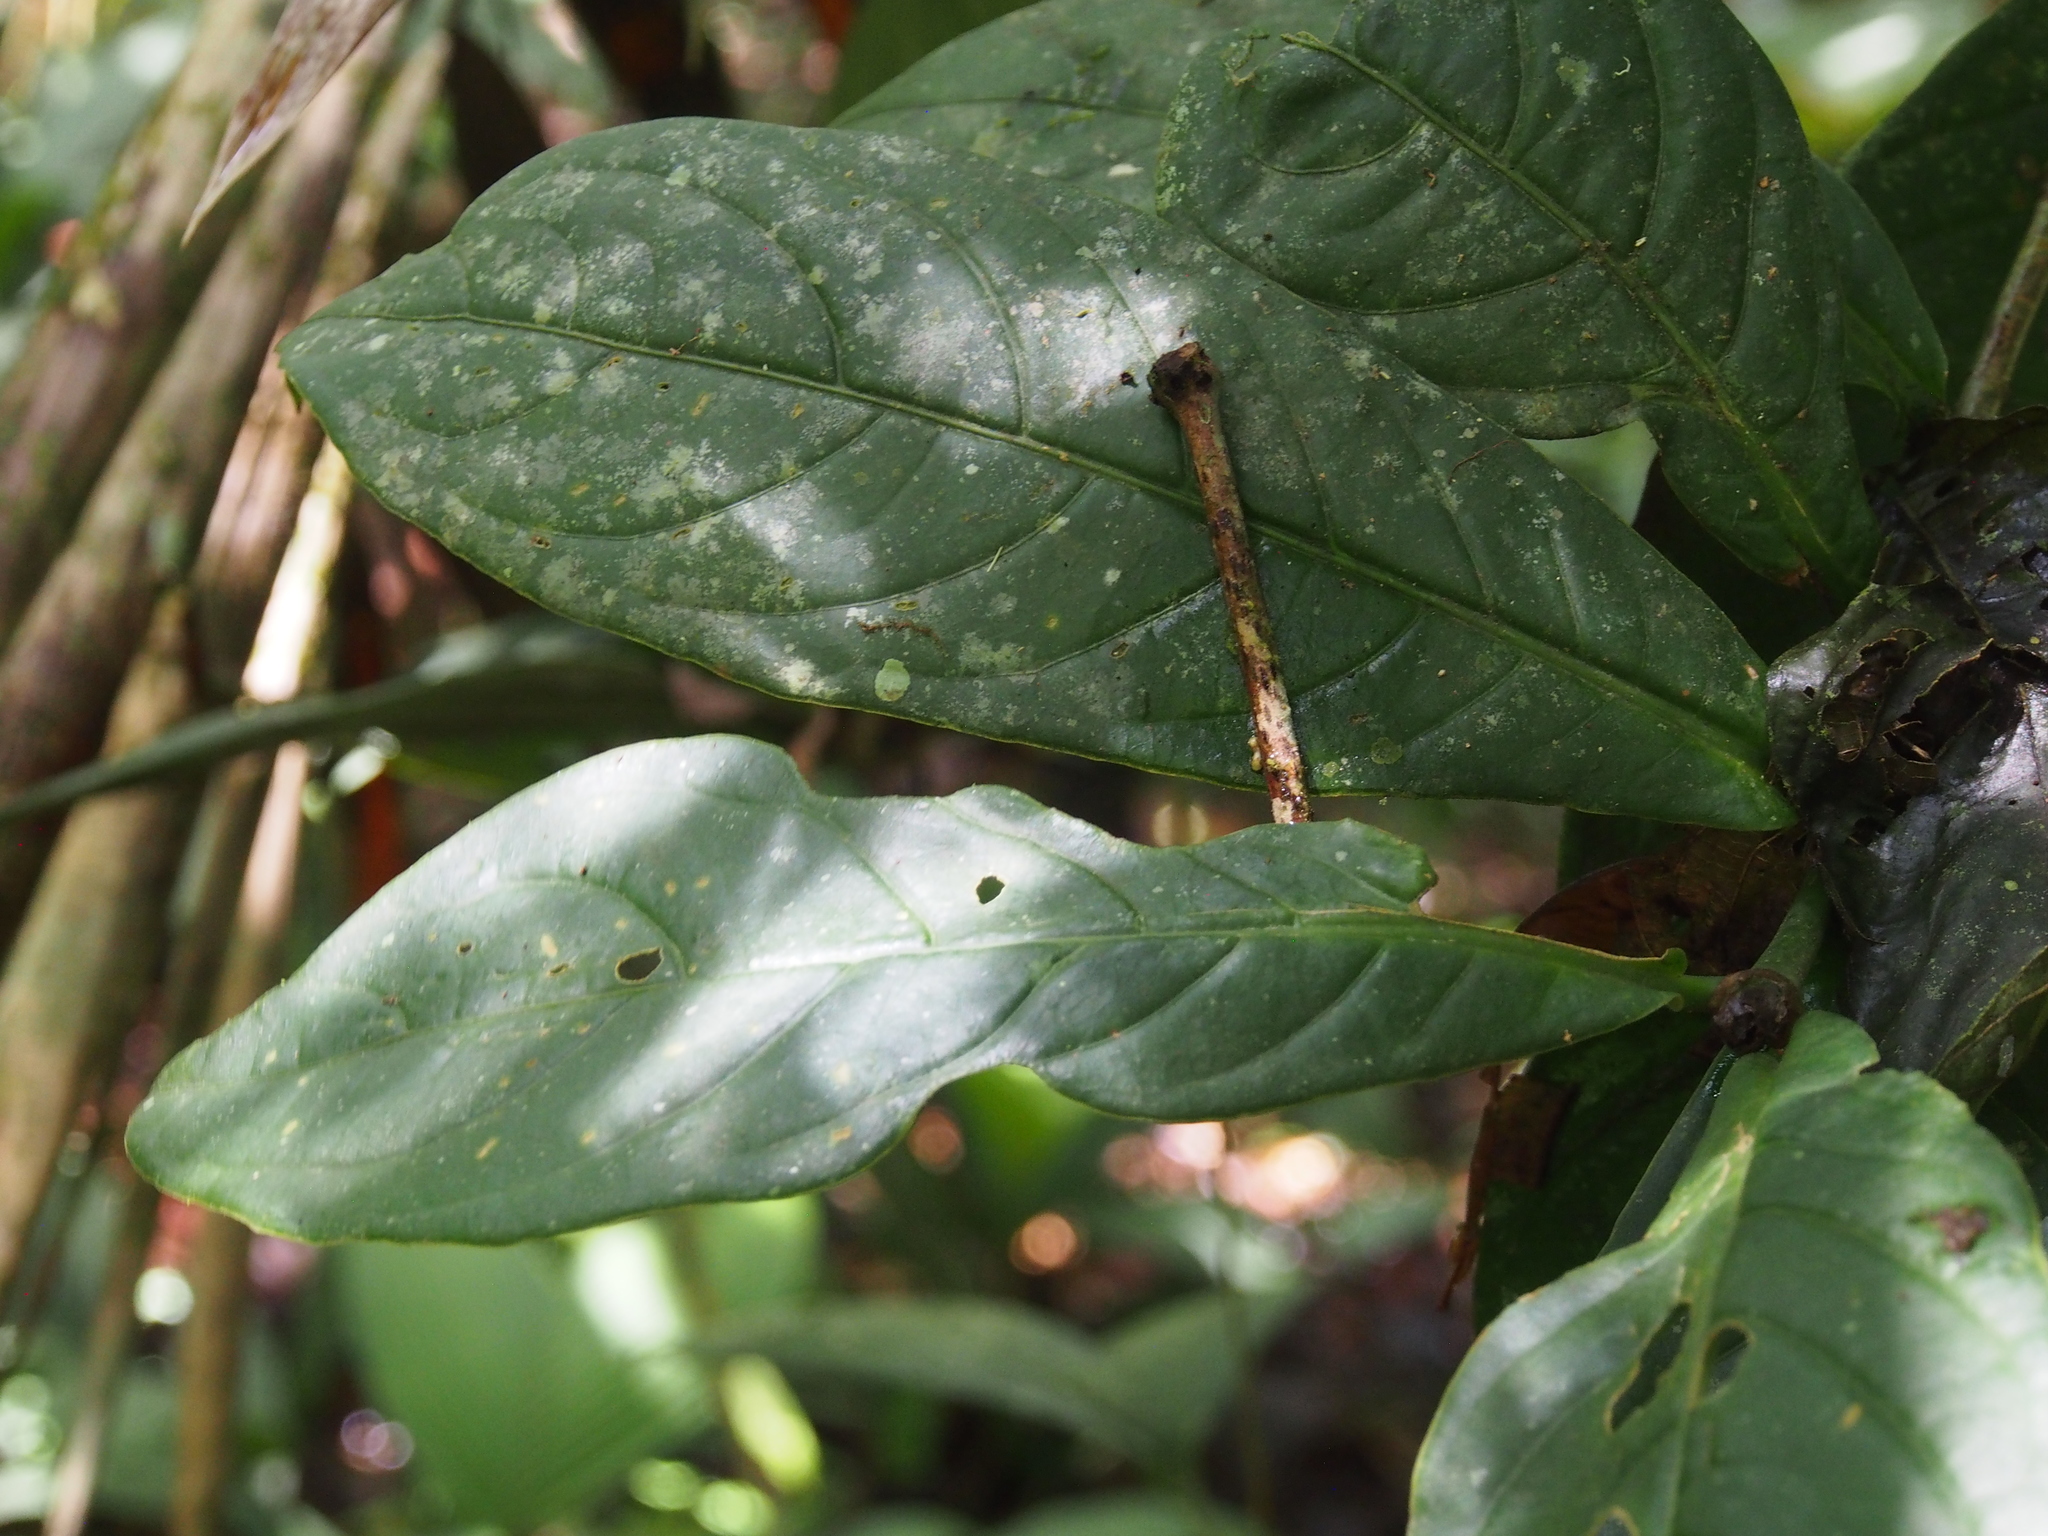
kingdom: Plantae
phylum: Tracheophyta
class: Magnoliopsida
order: Gentianales
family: Rubiaceae
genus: Rudgea
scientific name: Rudgea reducticalyx
